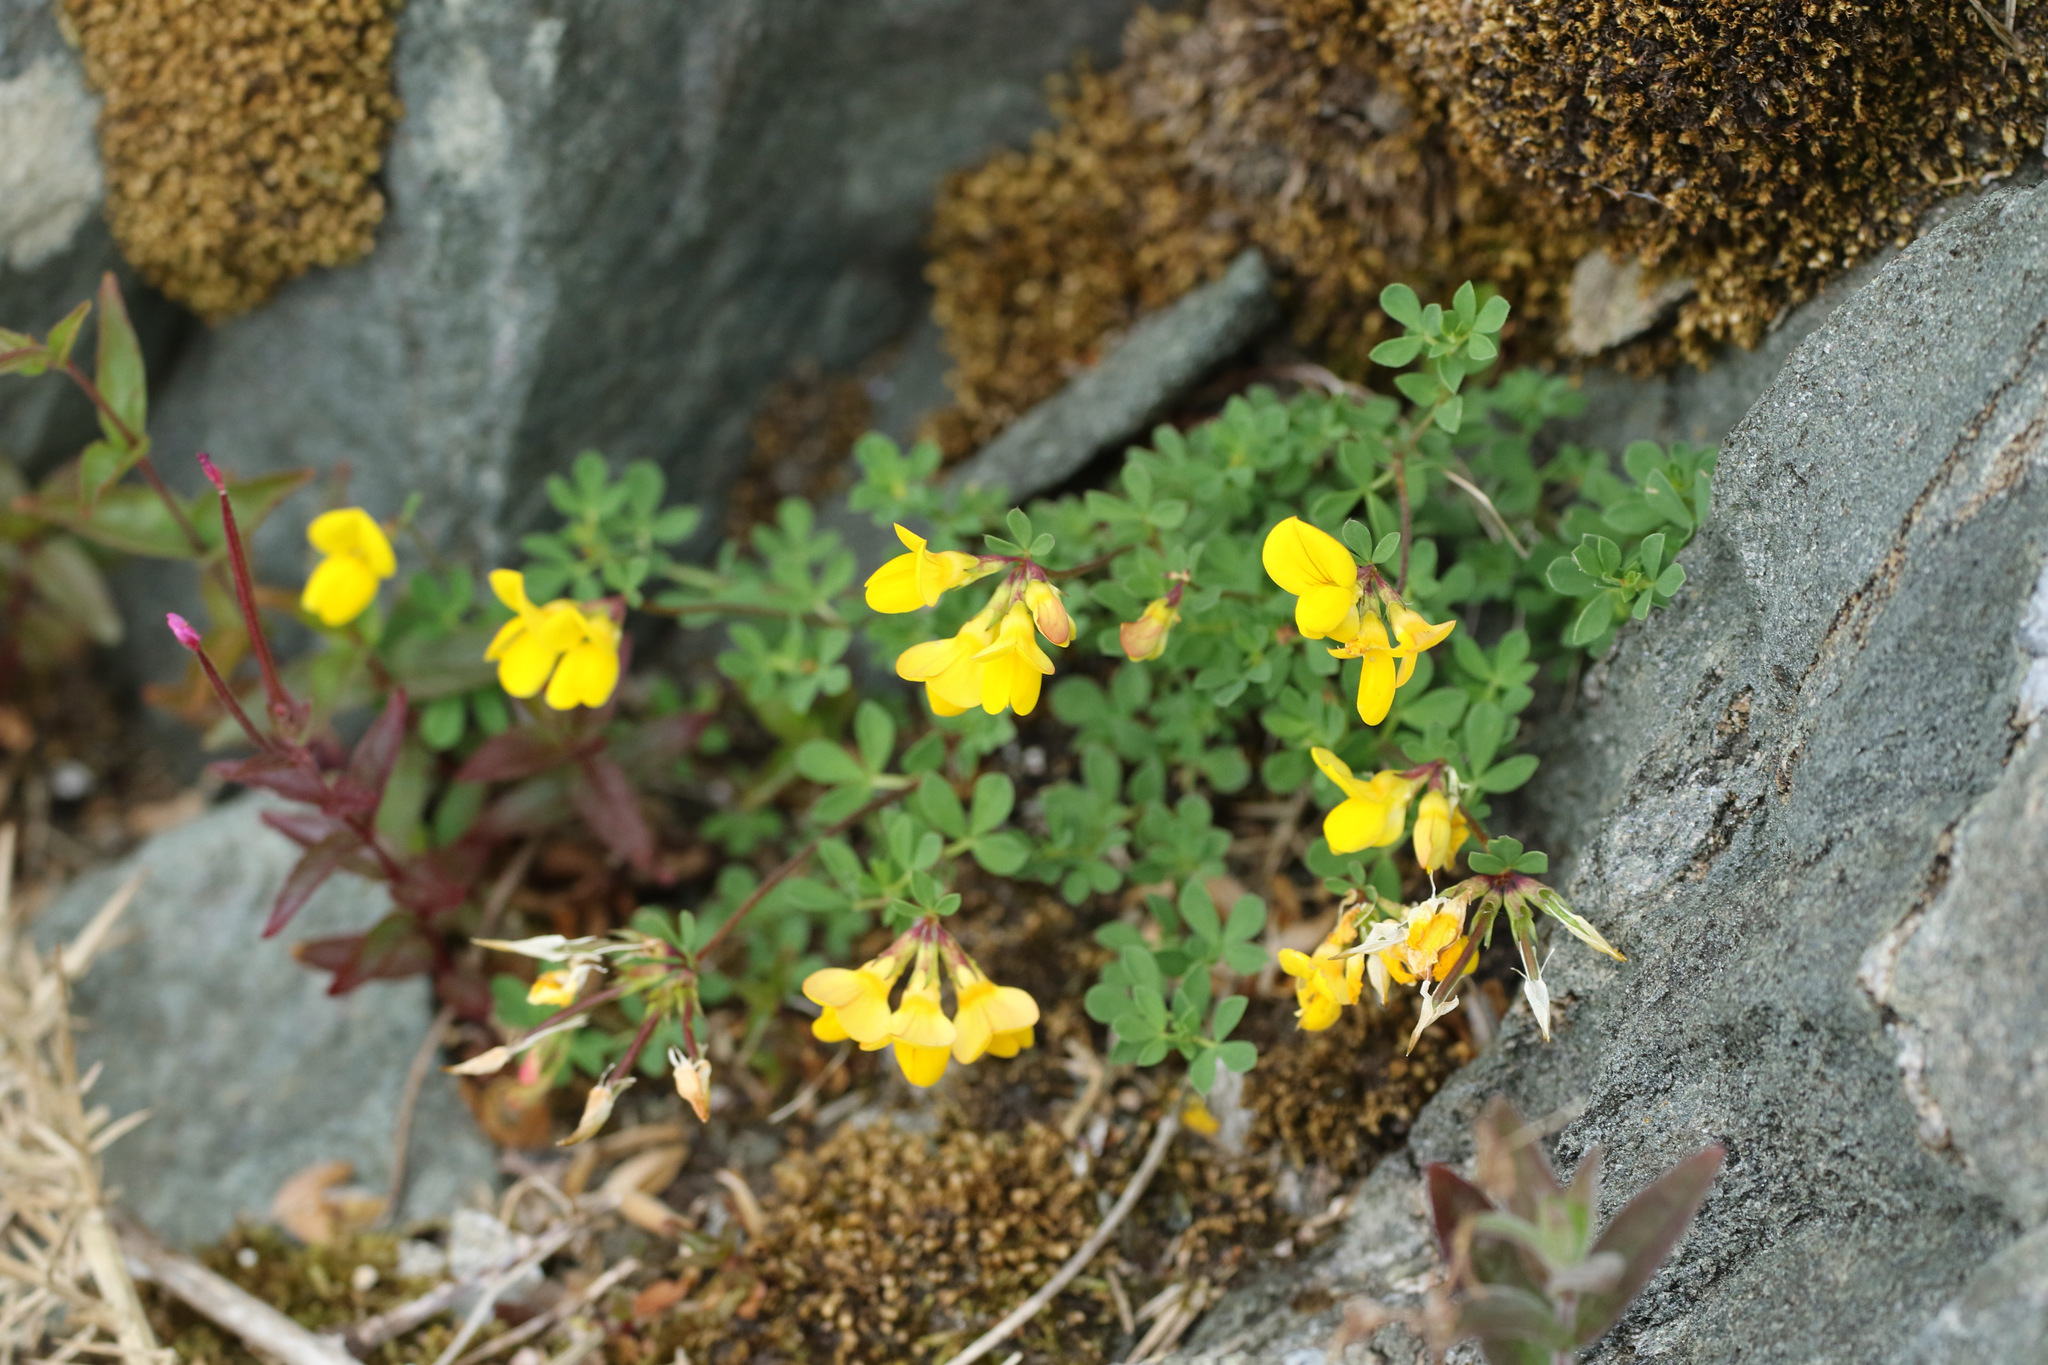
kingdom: Plantae
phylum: Tracheophyta
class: Magnoliopsida
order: Fabales
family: Fabaceae
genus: Lotus
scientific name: Lotus corniculatus
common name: Common bird's-foot-trefoil
